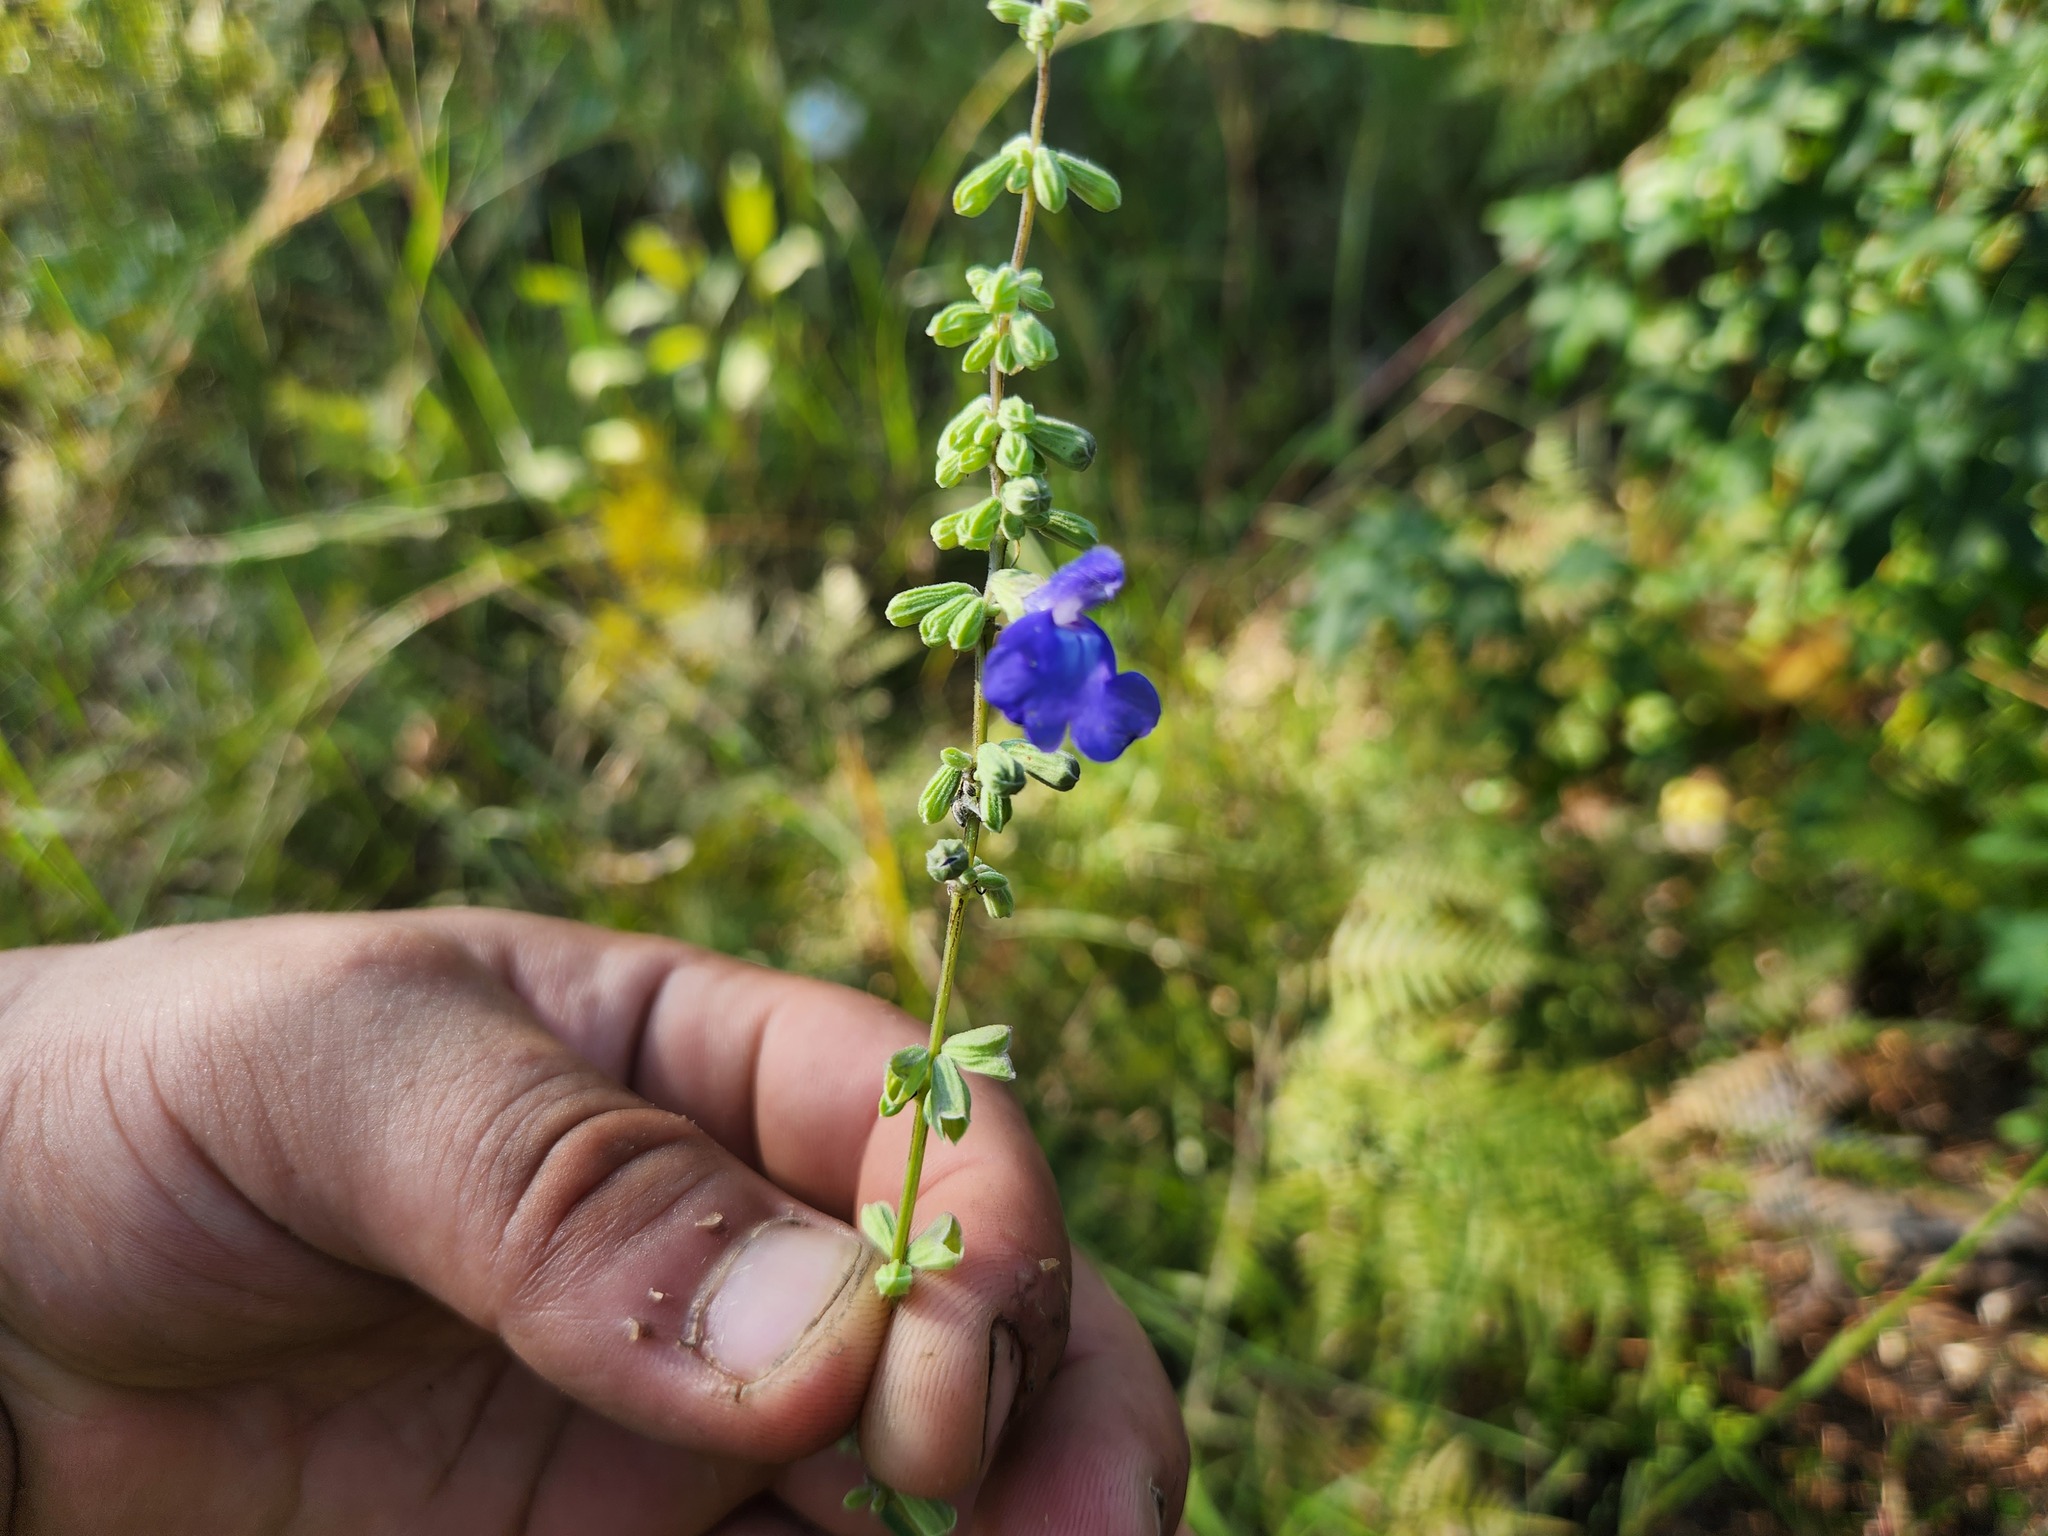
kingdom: Plantae
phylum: Tracheophyta
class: Magnoliopsida
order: Lamiales
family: Lamiaceae
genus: Salvia
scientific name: Salvia azurea
